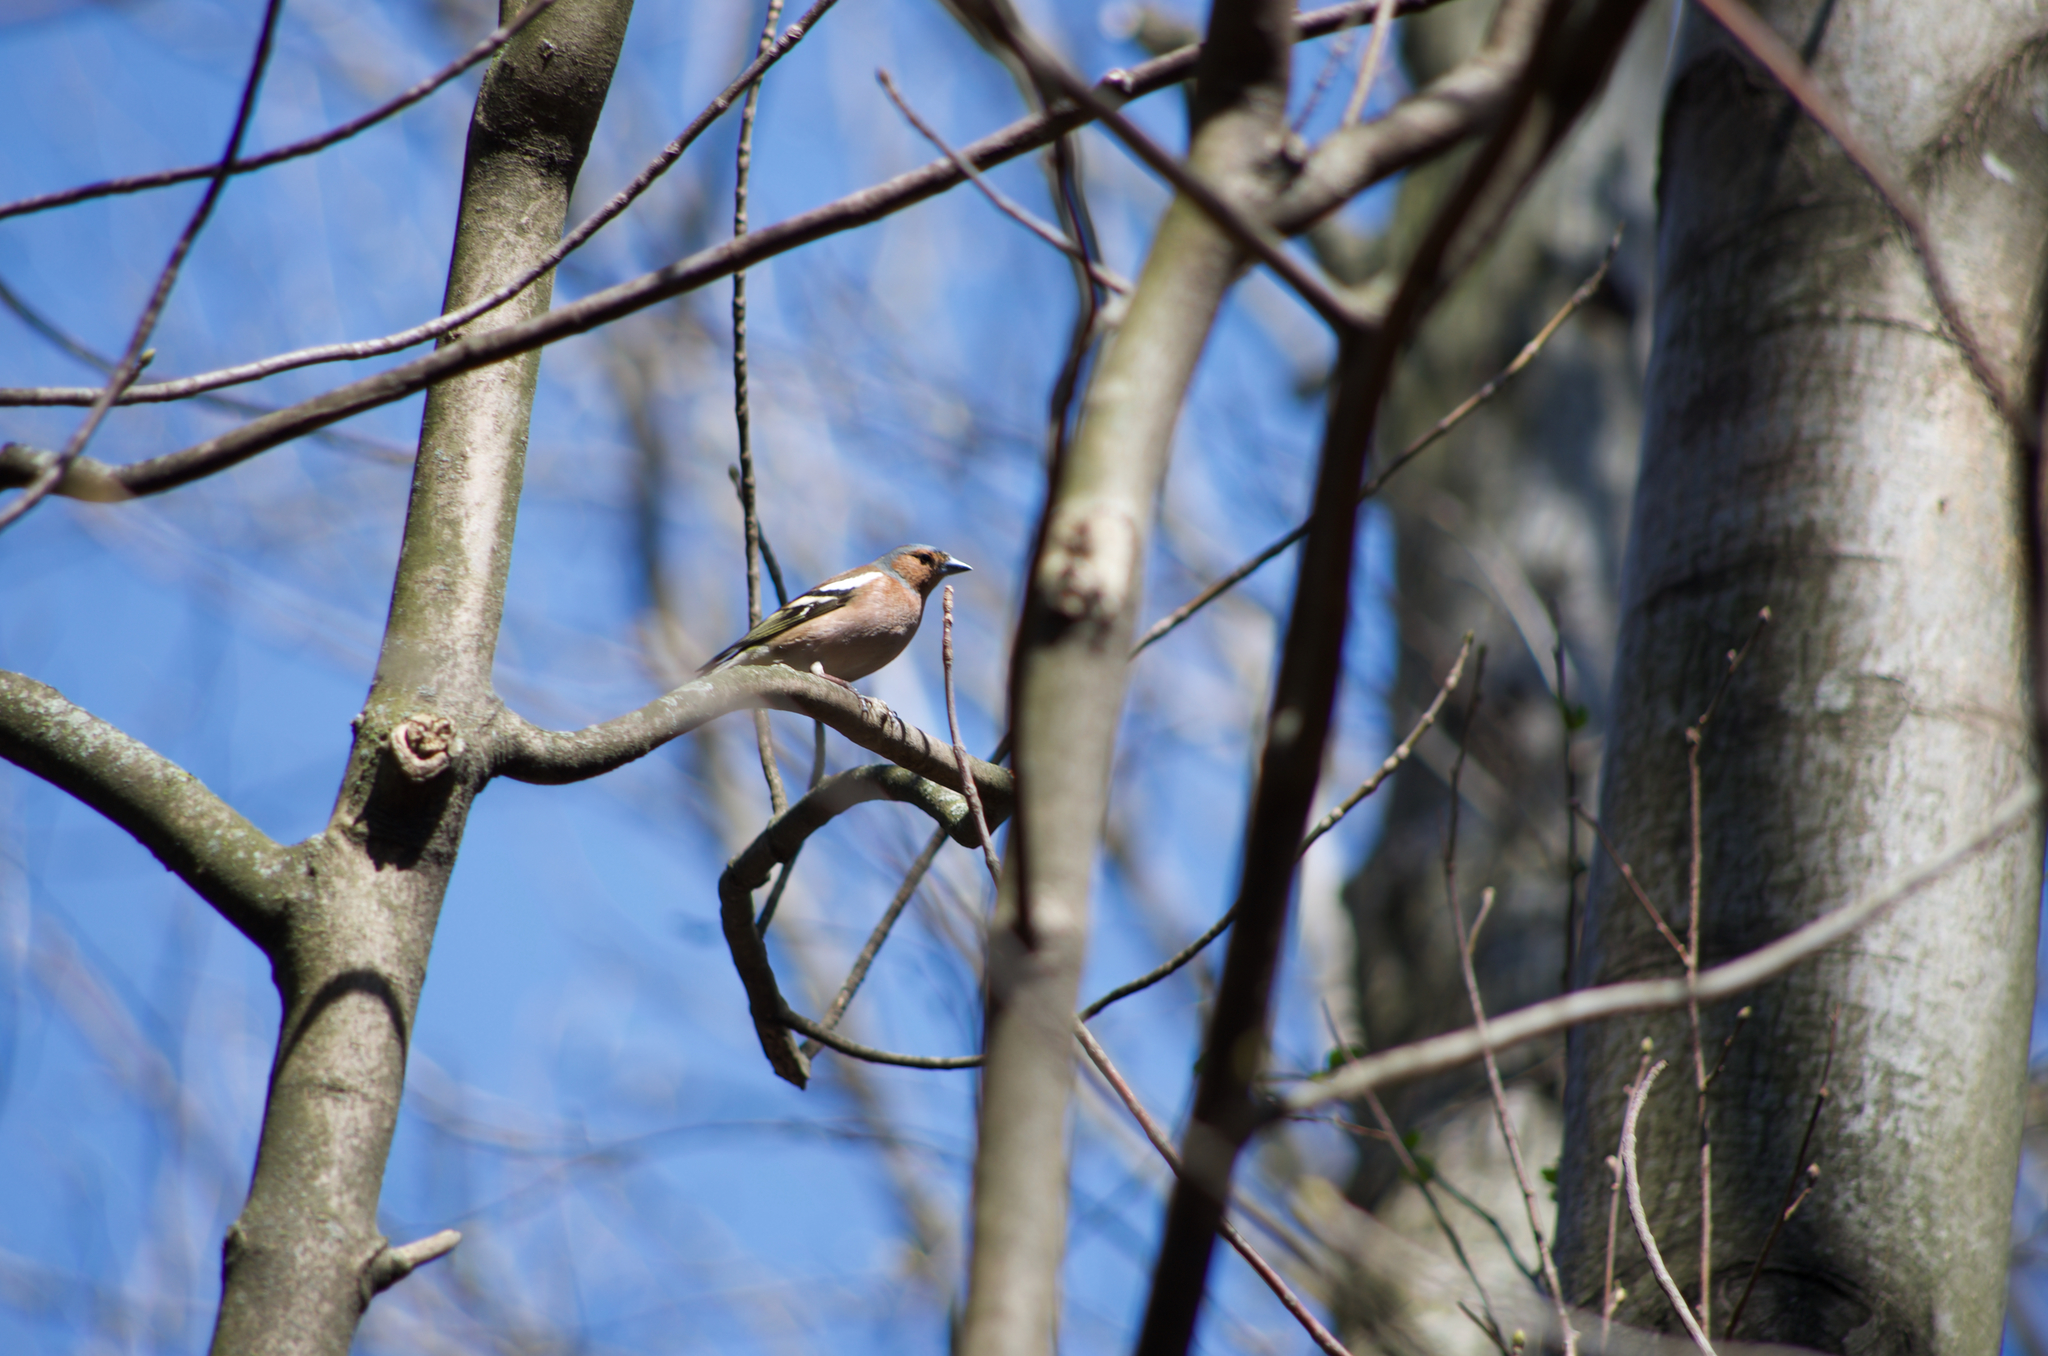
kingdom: Animalia
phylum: Chordata
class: Aves
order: Passeriformes
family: Fringillidae
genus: Fringilla
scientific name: Fringilla coelebs
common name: Common chaffinch
